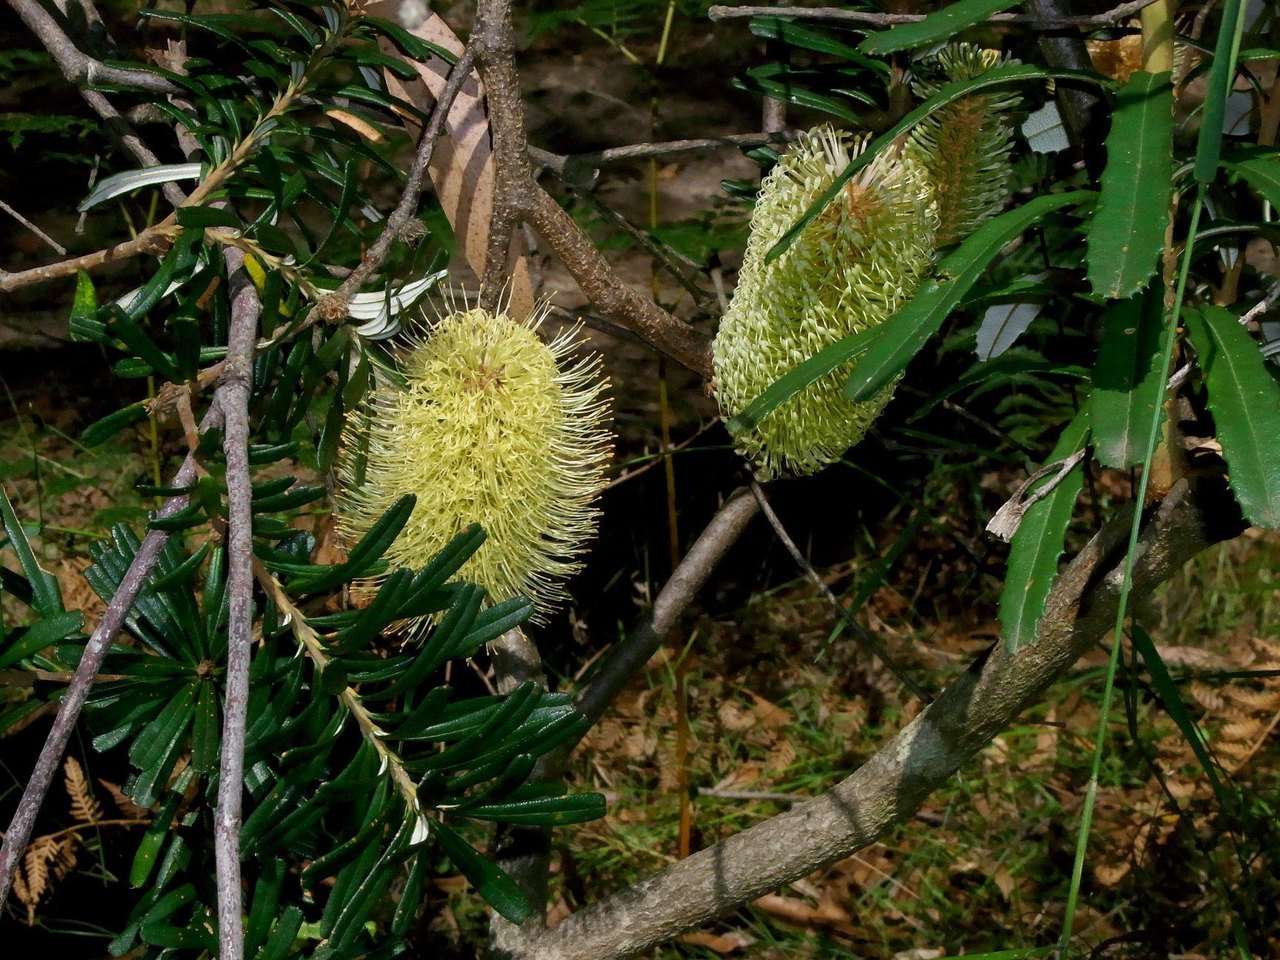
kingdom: Plantae
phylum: Tracheophyta
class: Magnoliopsida
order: Proteales
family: Proteaceae
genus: Banksia
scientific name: Banksia marginata
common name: Silver banksia
